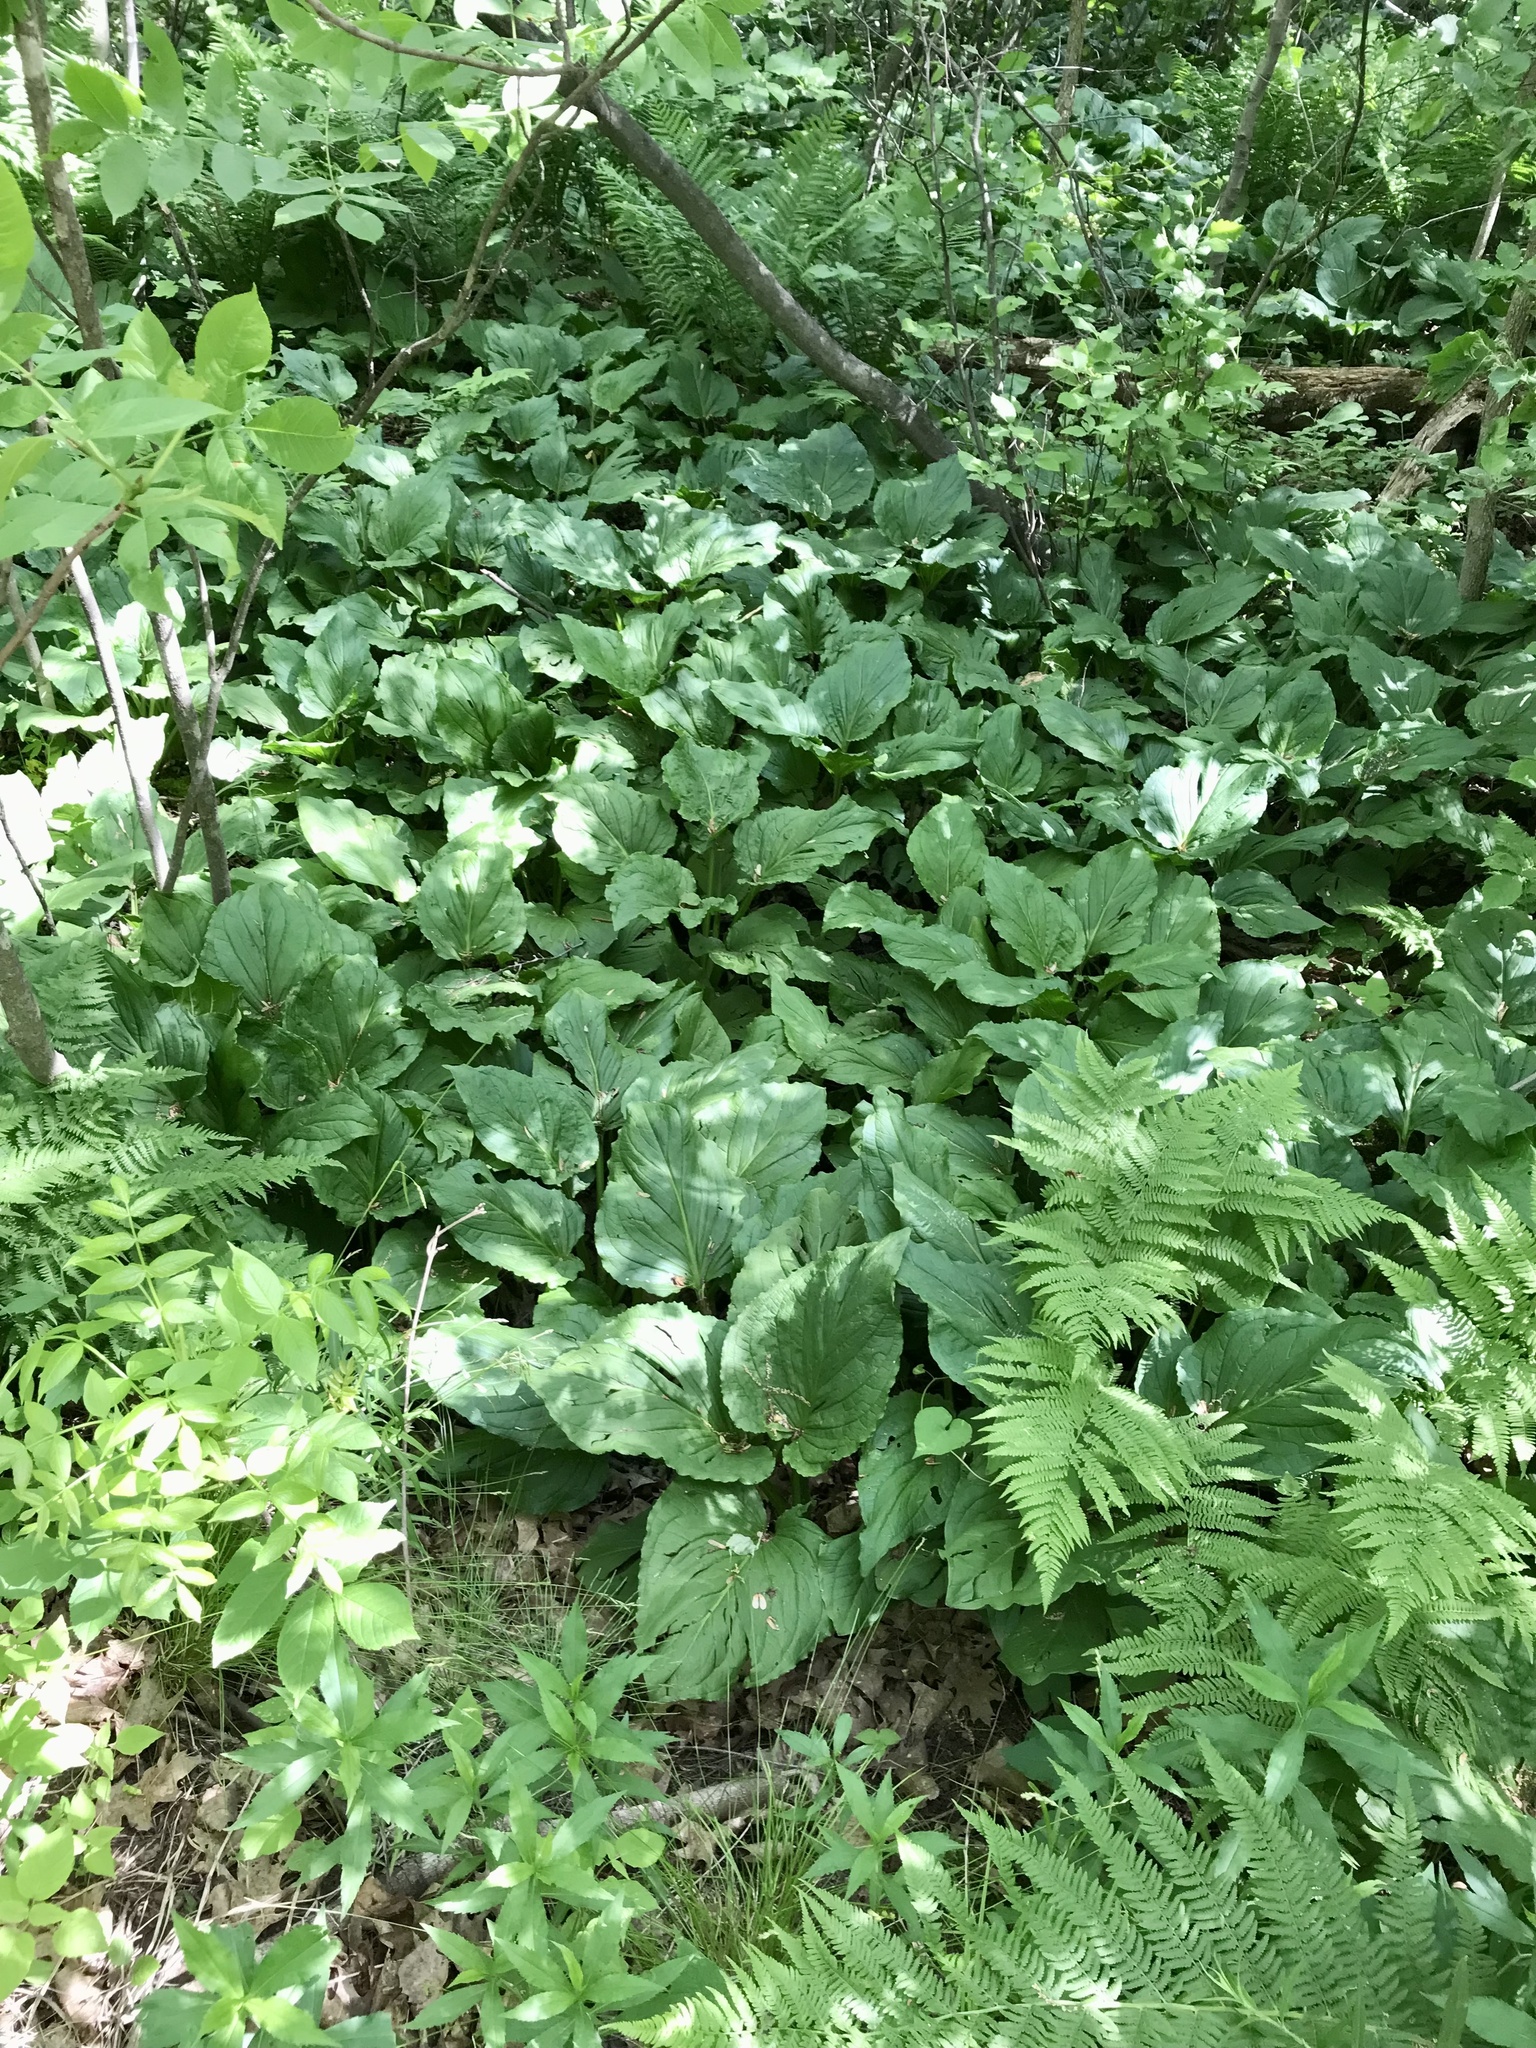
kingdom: Plantae
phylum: Tracheophyta
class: Liliopsida
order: Alismatales
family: Araceae
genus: Symplocarpus
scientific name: Symplocarpus foetidus
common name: Eastern skunk cabbage
